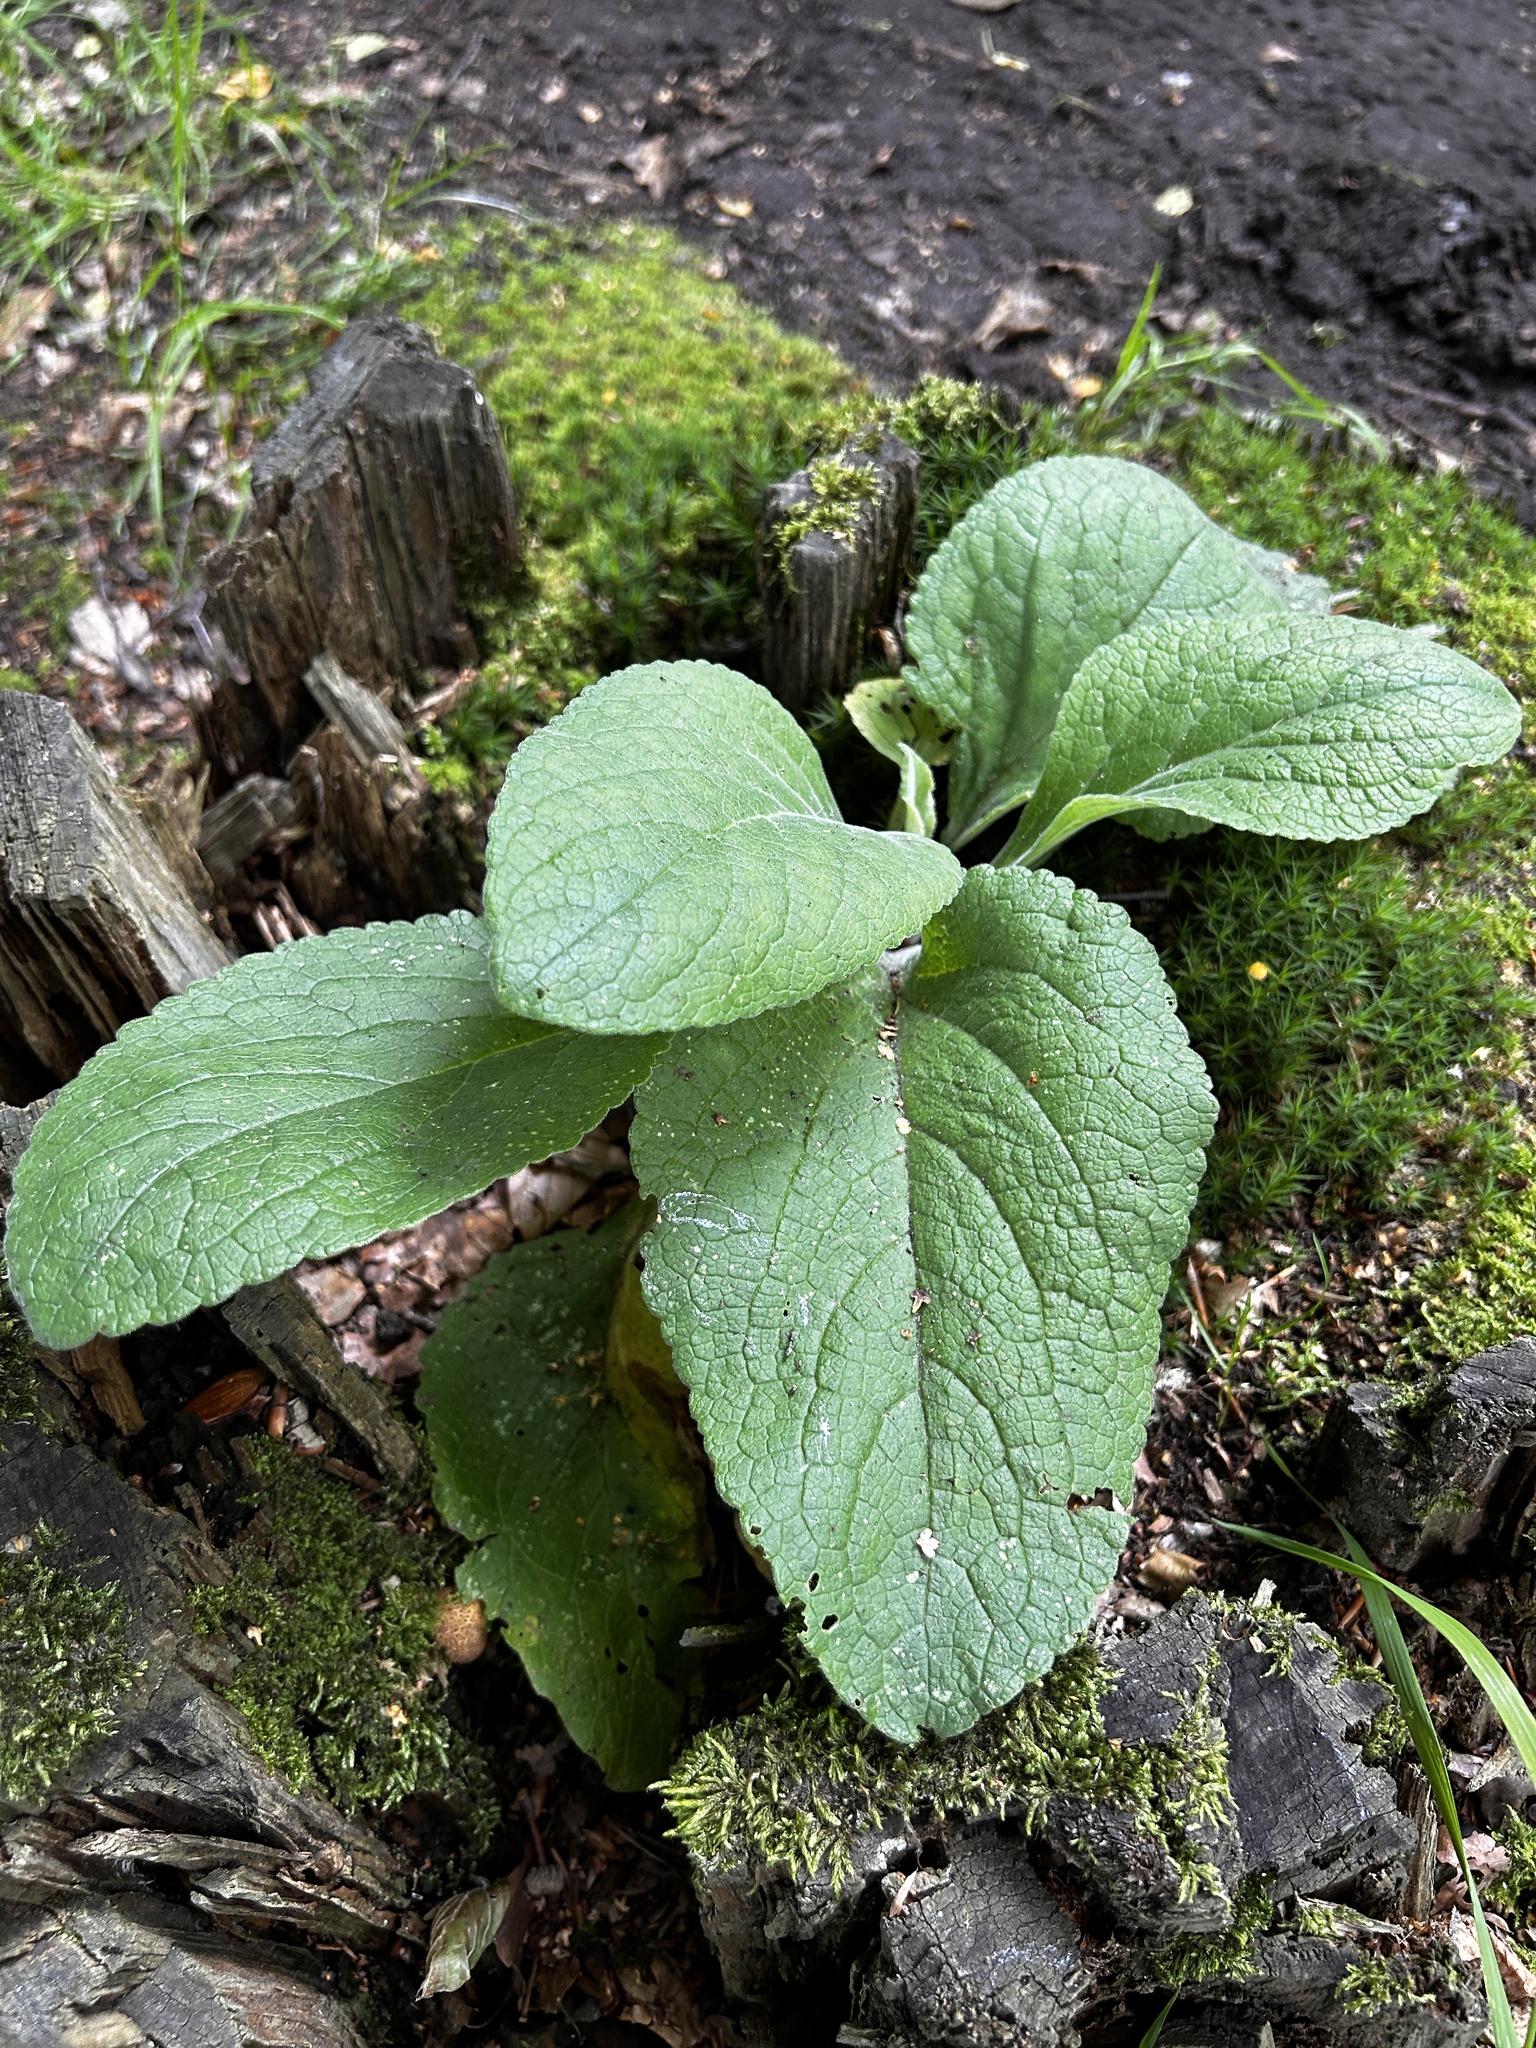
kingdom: Plantae
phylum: Tracheophyta
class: Magnoliopsida
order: Lamiales
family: Plantaginaceae
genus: Digitalis
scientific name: Digitalis purpurea
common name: Foxglove
